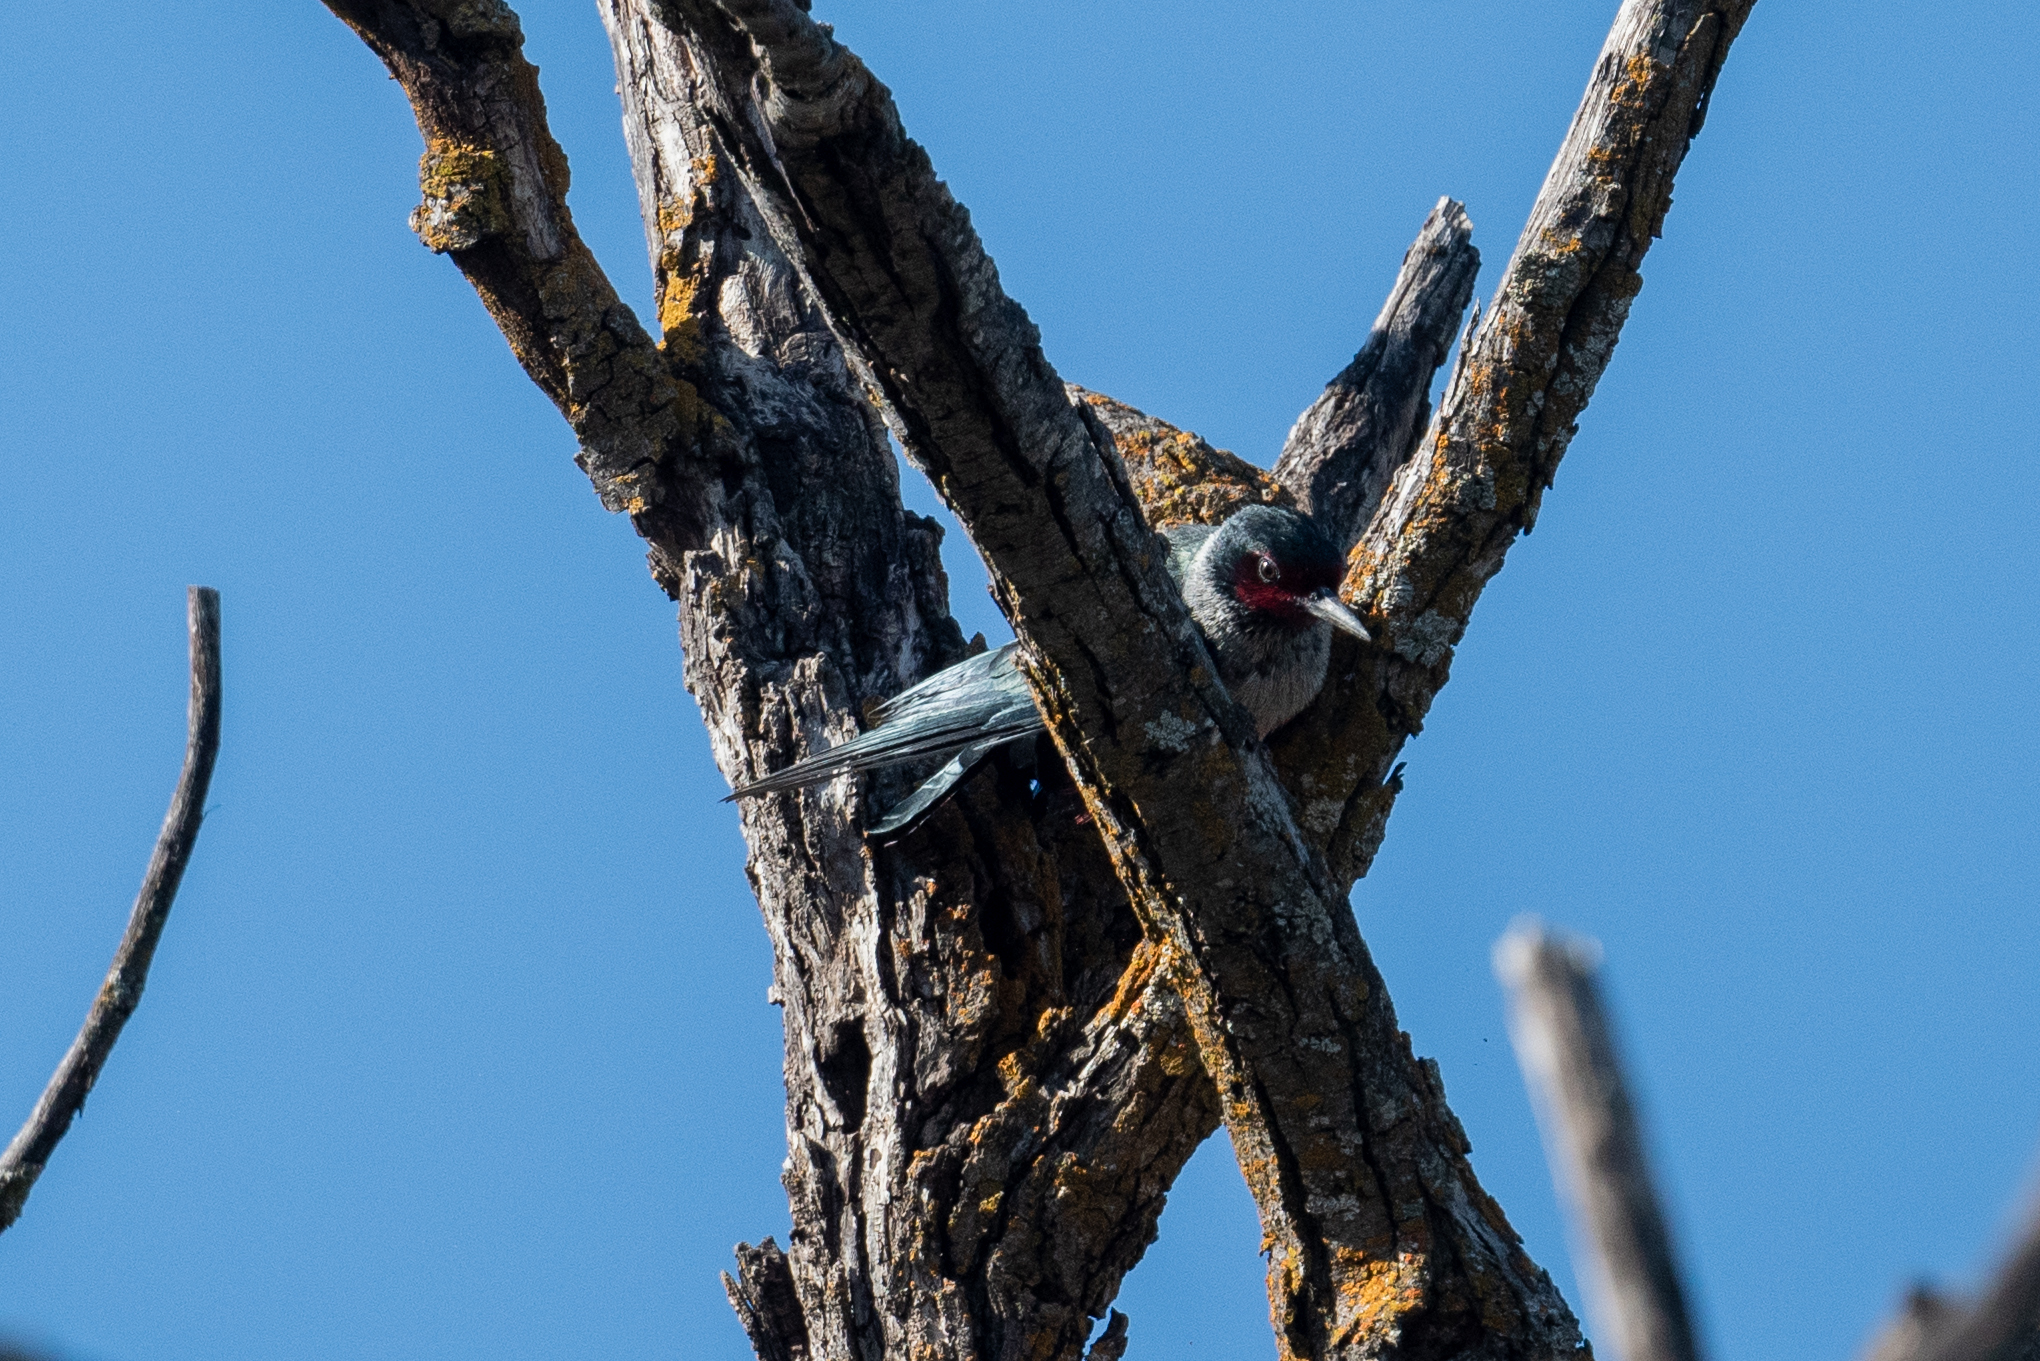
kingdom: Animalia
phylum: Chordata
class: Aves
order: Piciformes
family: Picidae
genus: Melanerpes
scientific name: Melanerpes lewis
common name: Lewis's woodpecker
